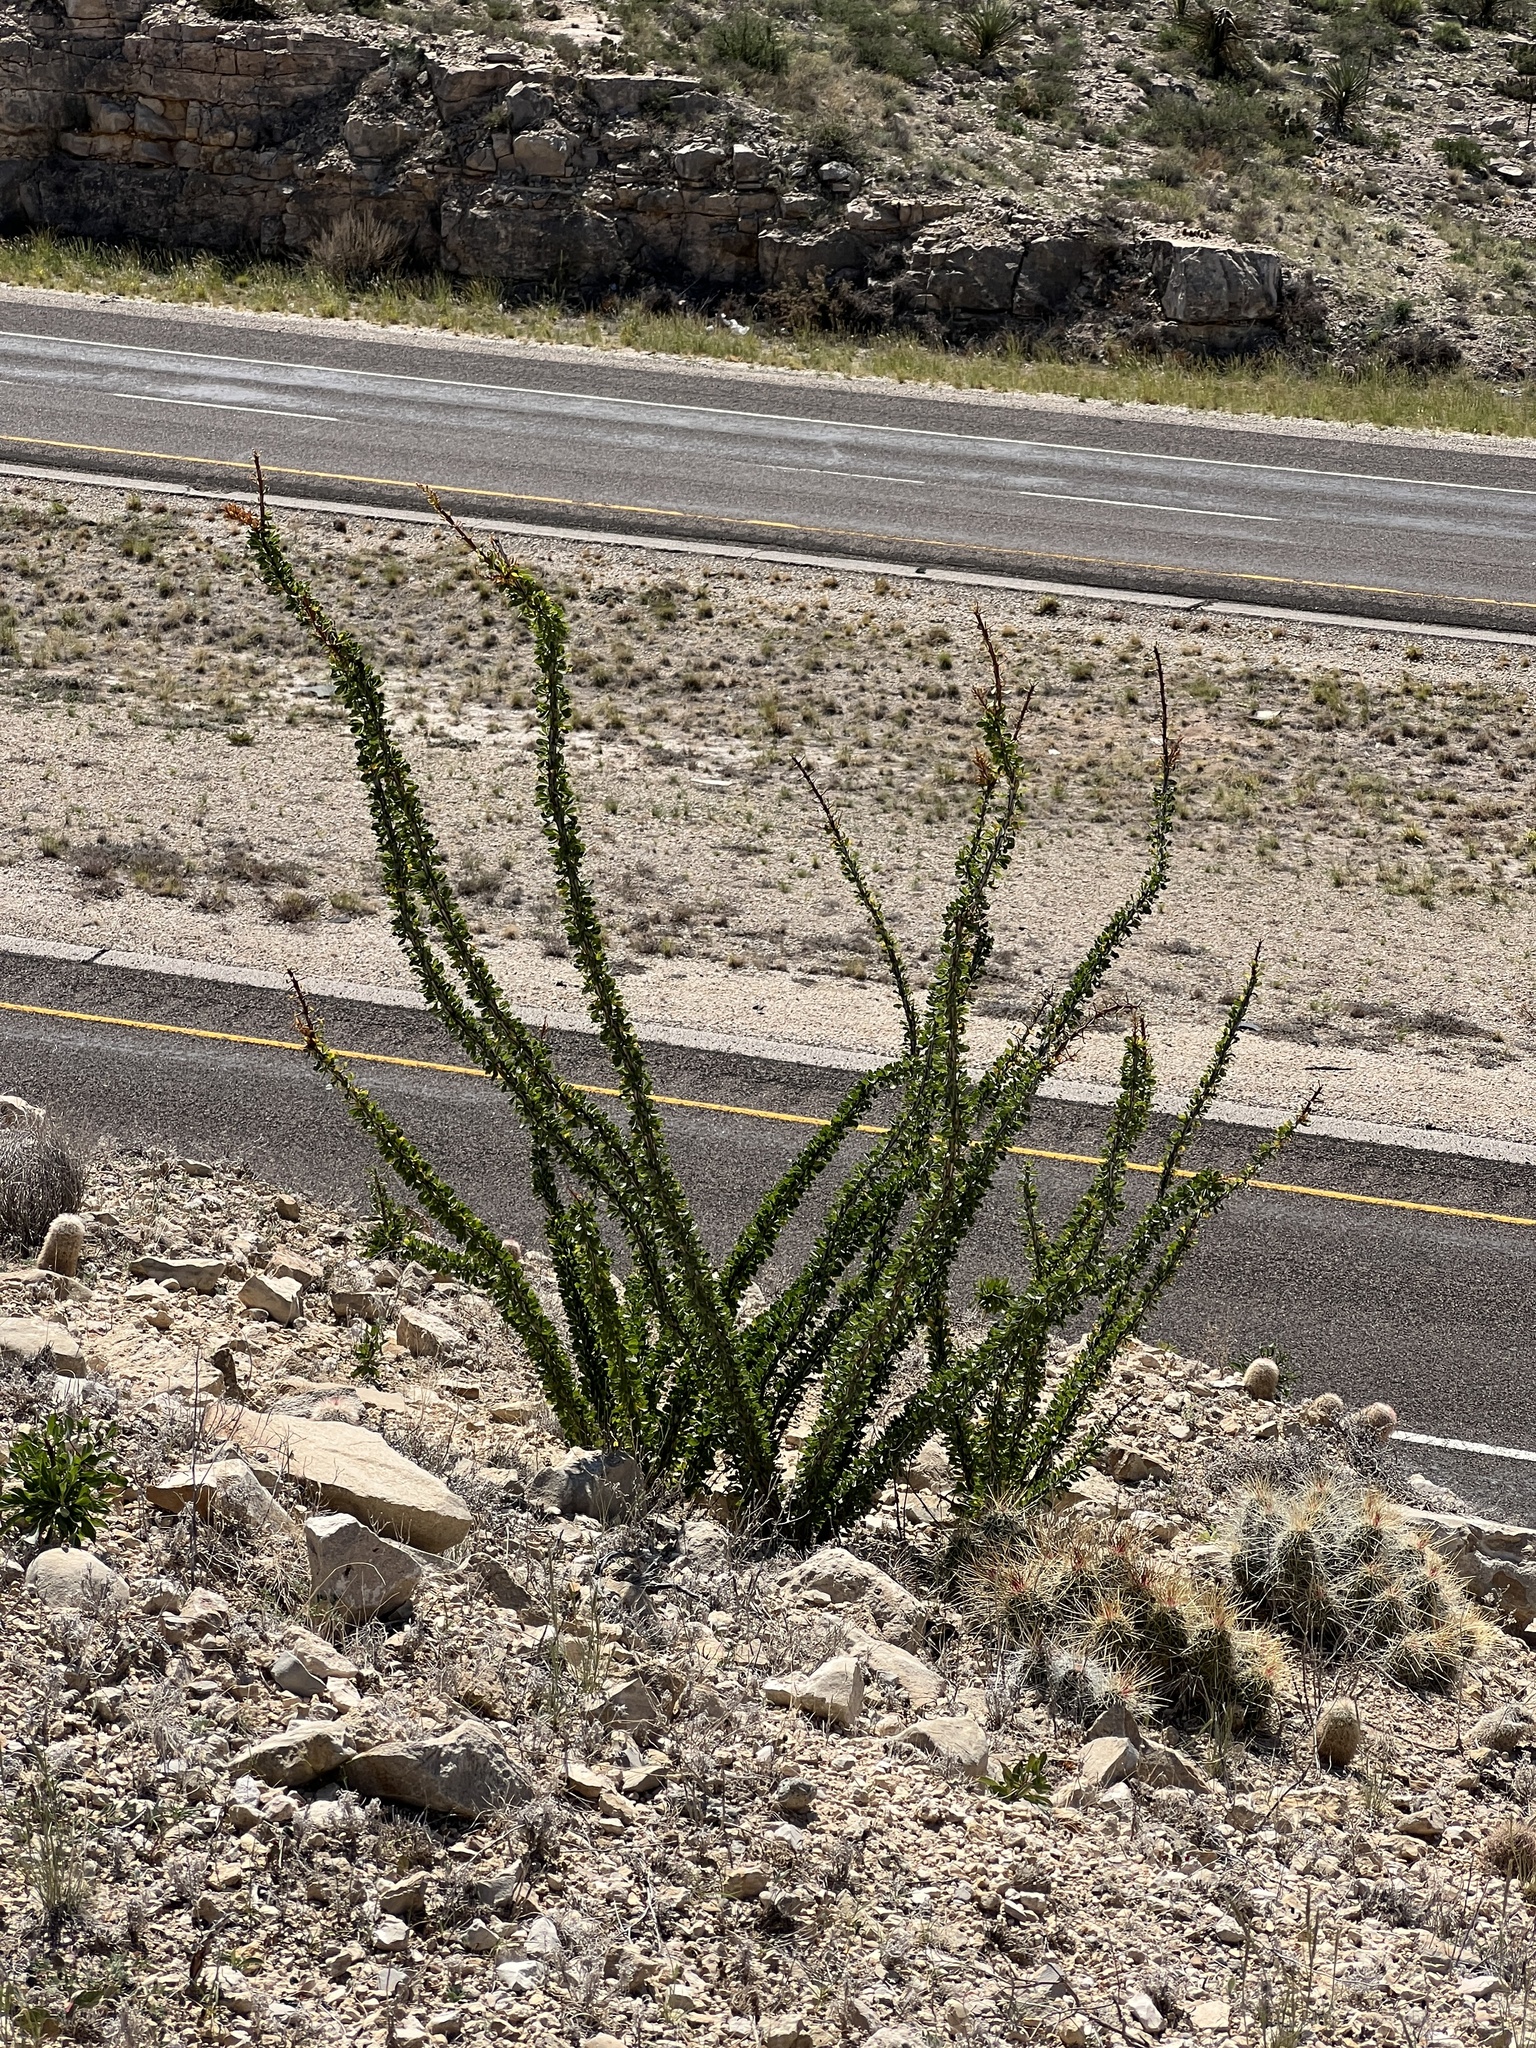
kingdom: Plantae
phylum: Tracheophyta
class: Magnoliopsida
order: Ericales
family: Fouquieriaceae
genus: Fouquieria
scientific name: Fouquieria splendens
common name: Vine-cactus
